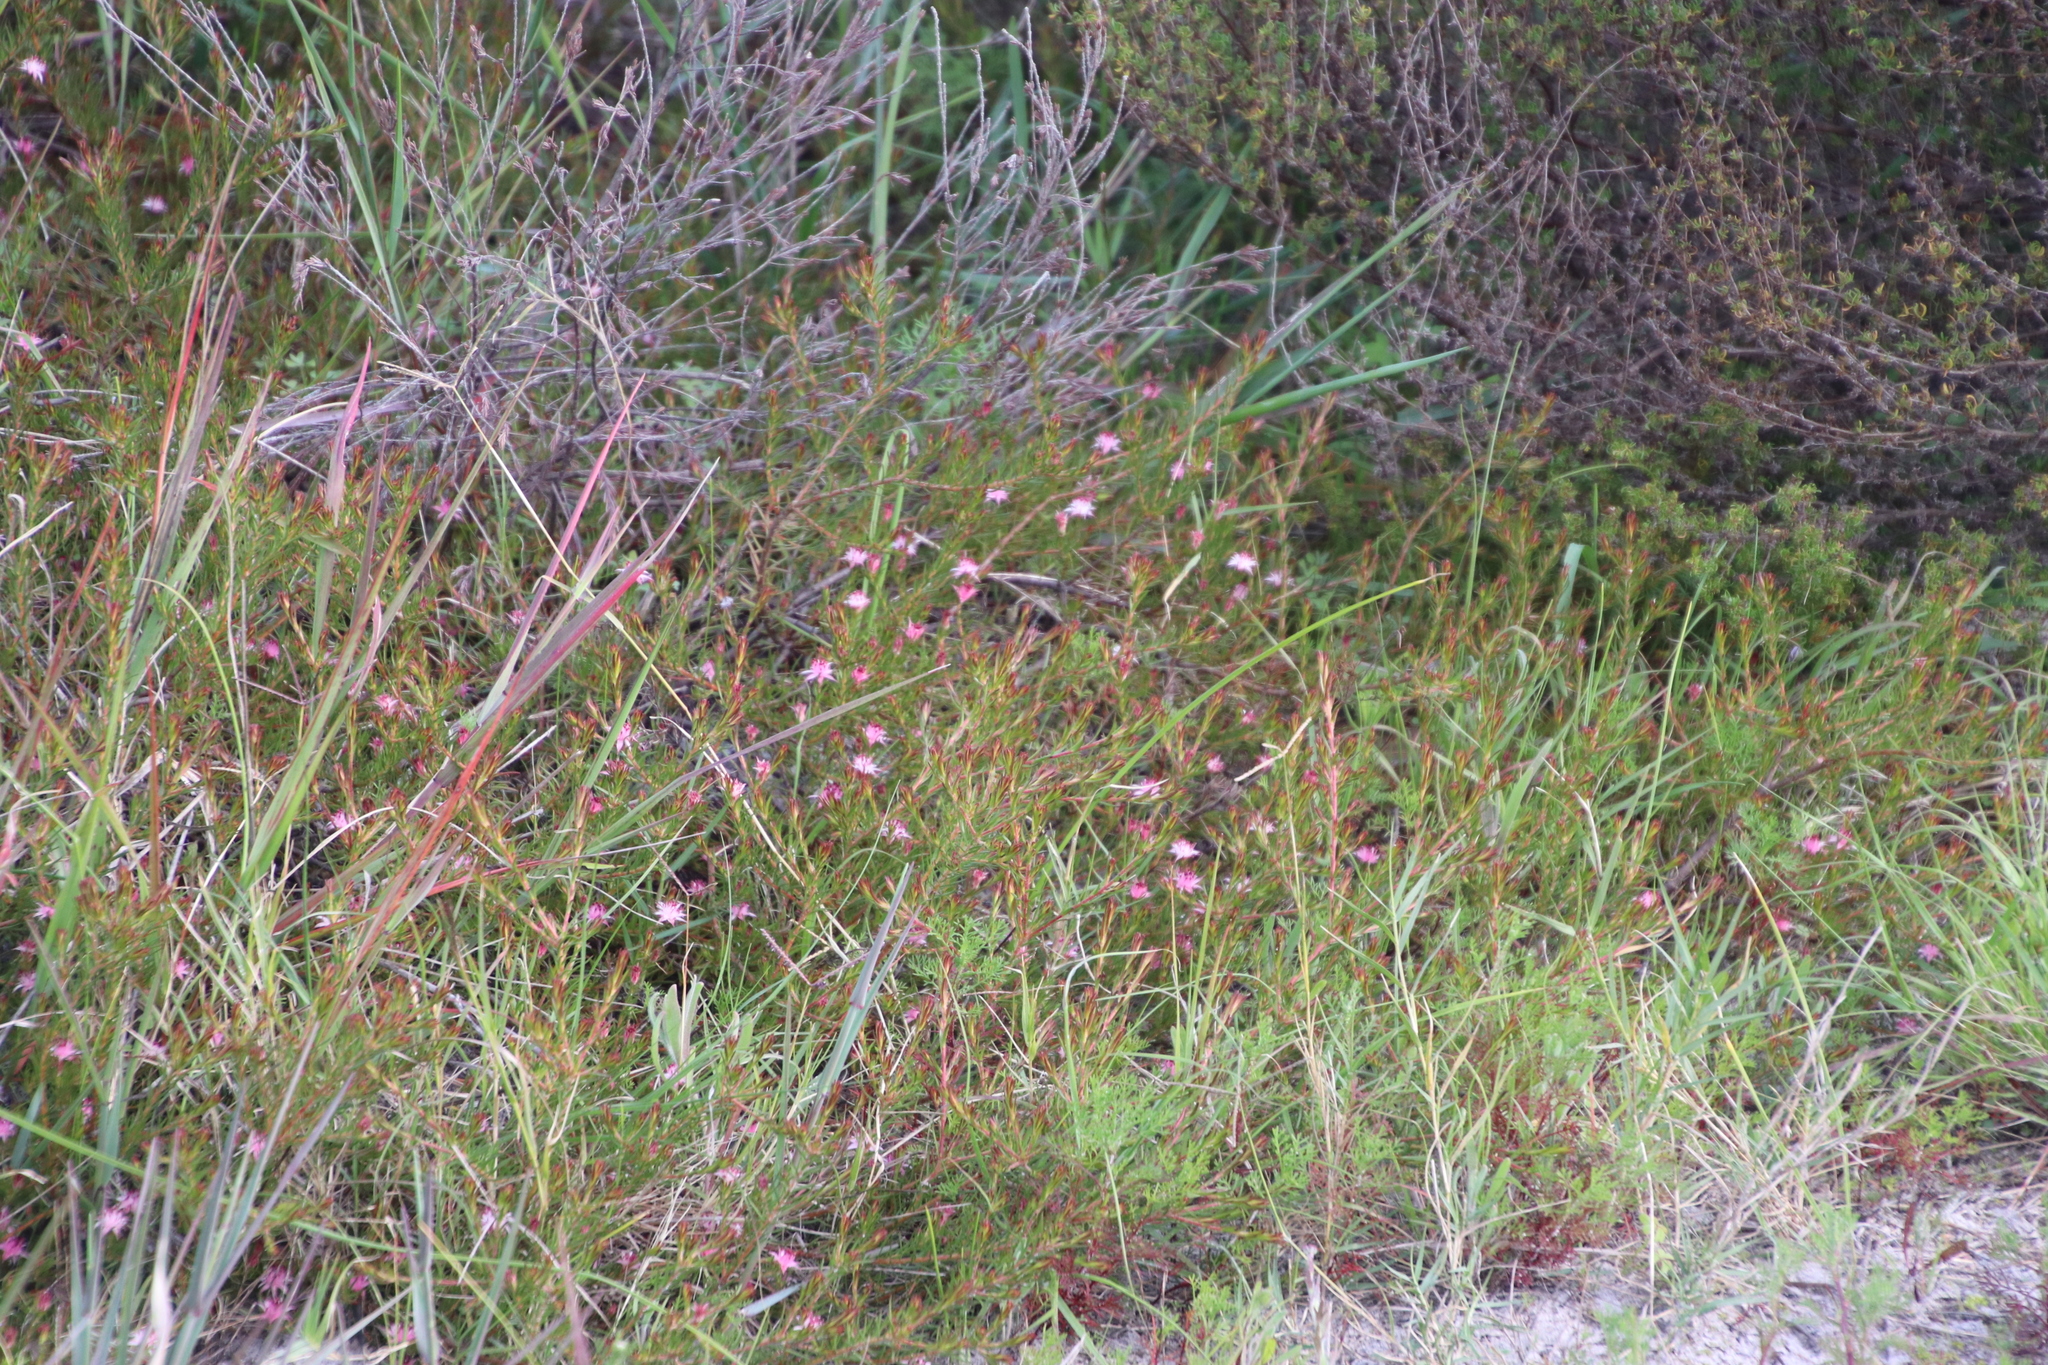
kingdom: Plantae
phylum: Tracheophyta
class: Magnoliopsida
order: Proteales
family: Proteaceae
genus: Diastella
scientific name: Diastella proteoides
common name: Flats silkypuff
